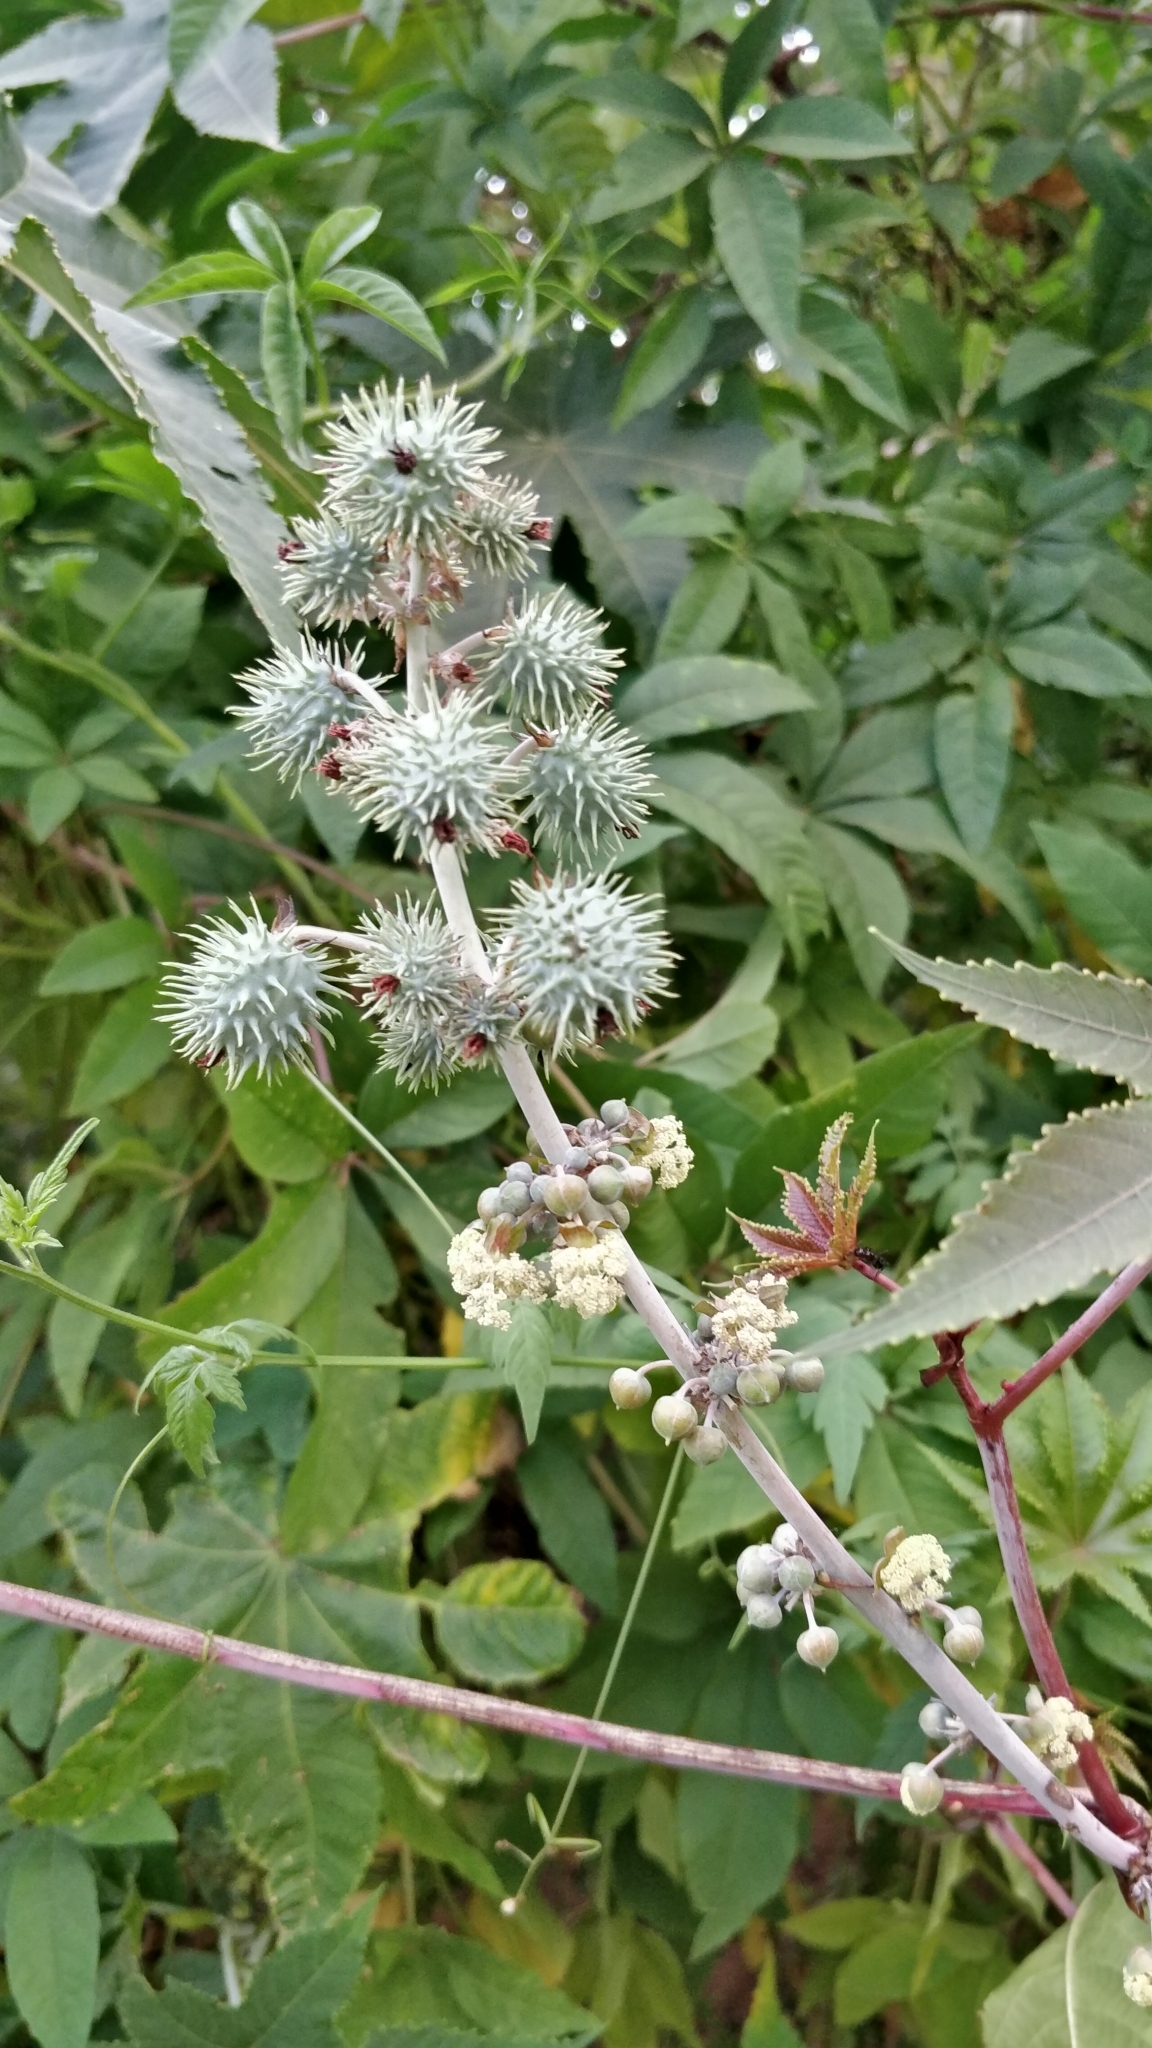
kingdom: Plantae
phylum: Tracheophyta
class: Magnoliopsida
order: Malpighiales
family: Euphorbiaceae
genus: Ricinus
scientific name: Ricinus communis
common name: Castor-oil-plant
